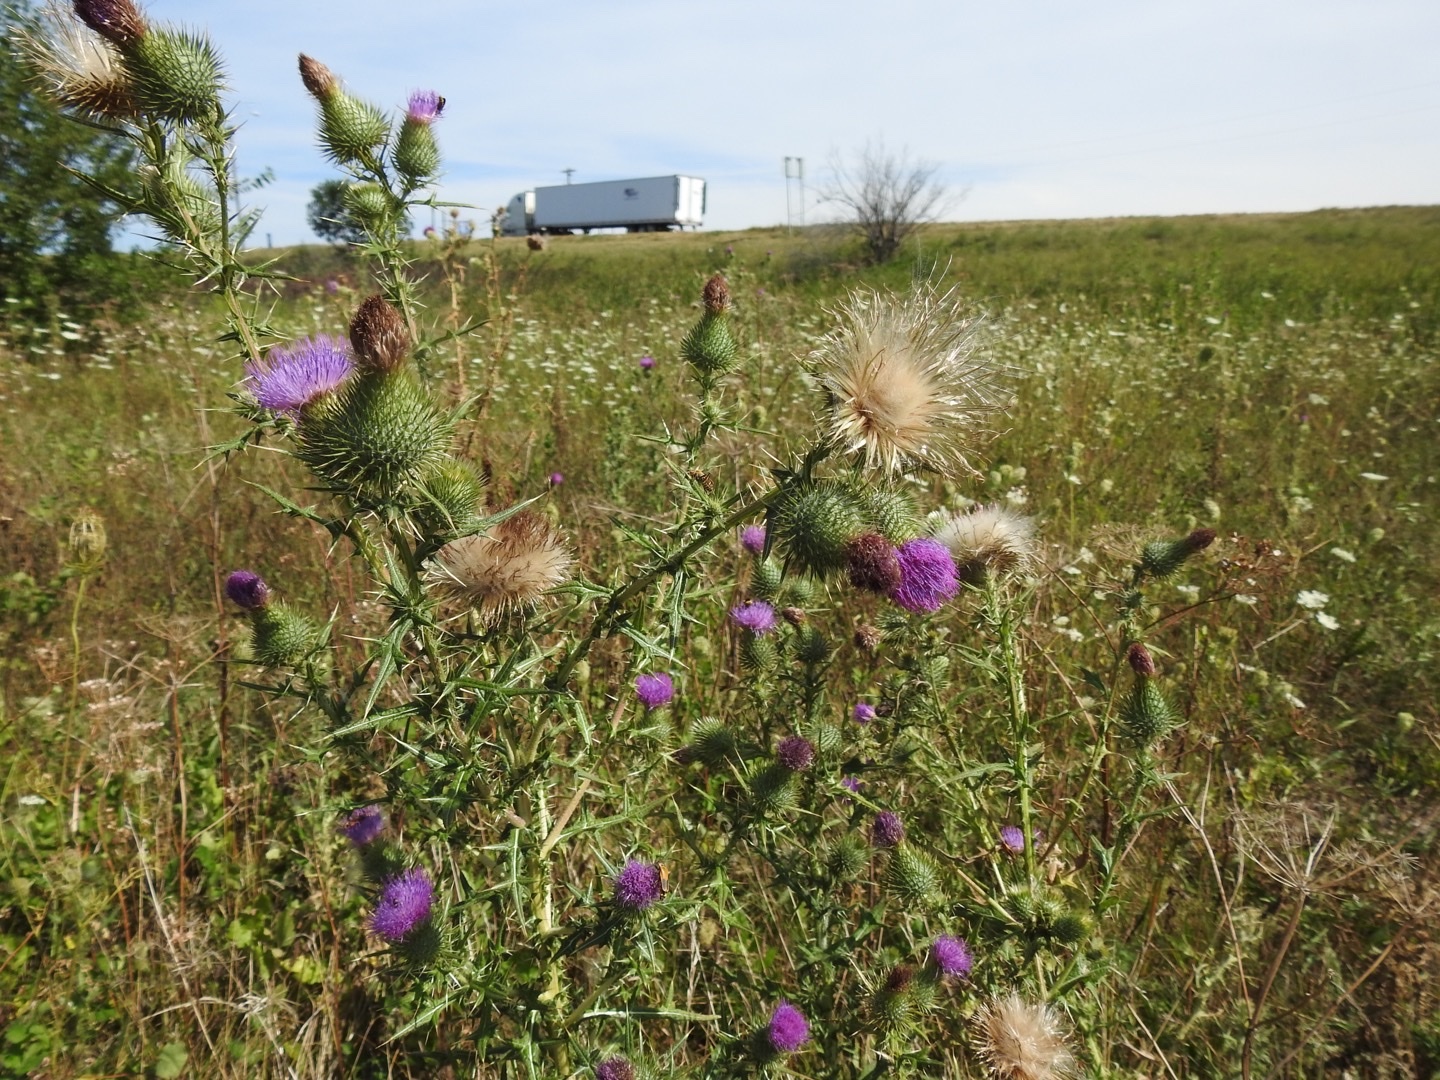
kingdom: Plantae
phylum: Tracheophyta
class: Magnoliopsida
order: Asterales
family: Asteraceae
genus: Cirsium
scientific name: Cirsium vulgare
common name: Bull thistle
